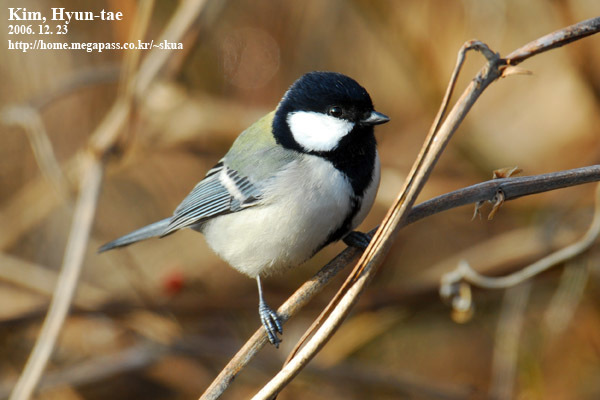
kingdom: Animalia
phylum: Chordata
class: Aves
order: Passeriformes
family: Paridae
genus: Parus
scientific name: Parus minor
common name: Japanese tit
